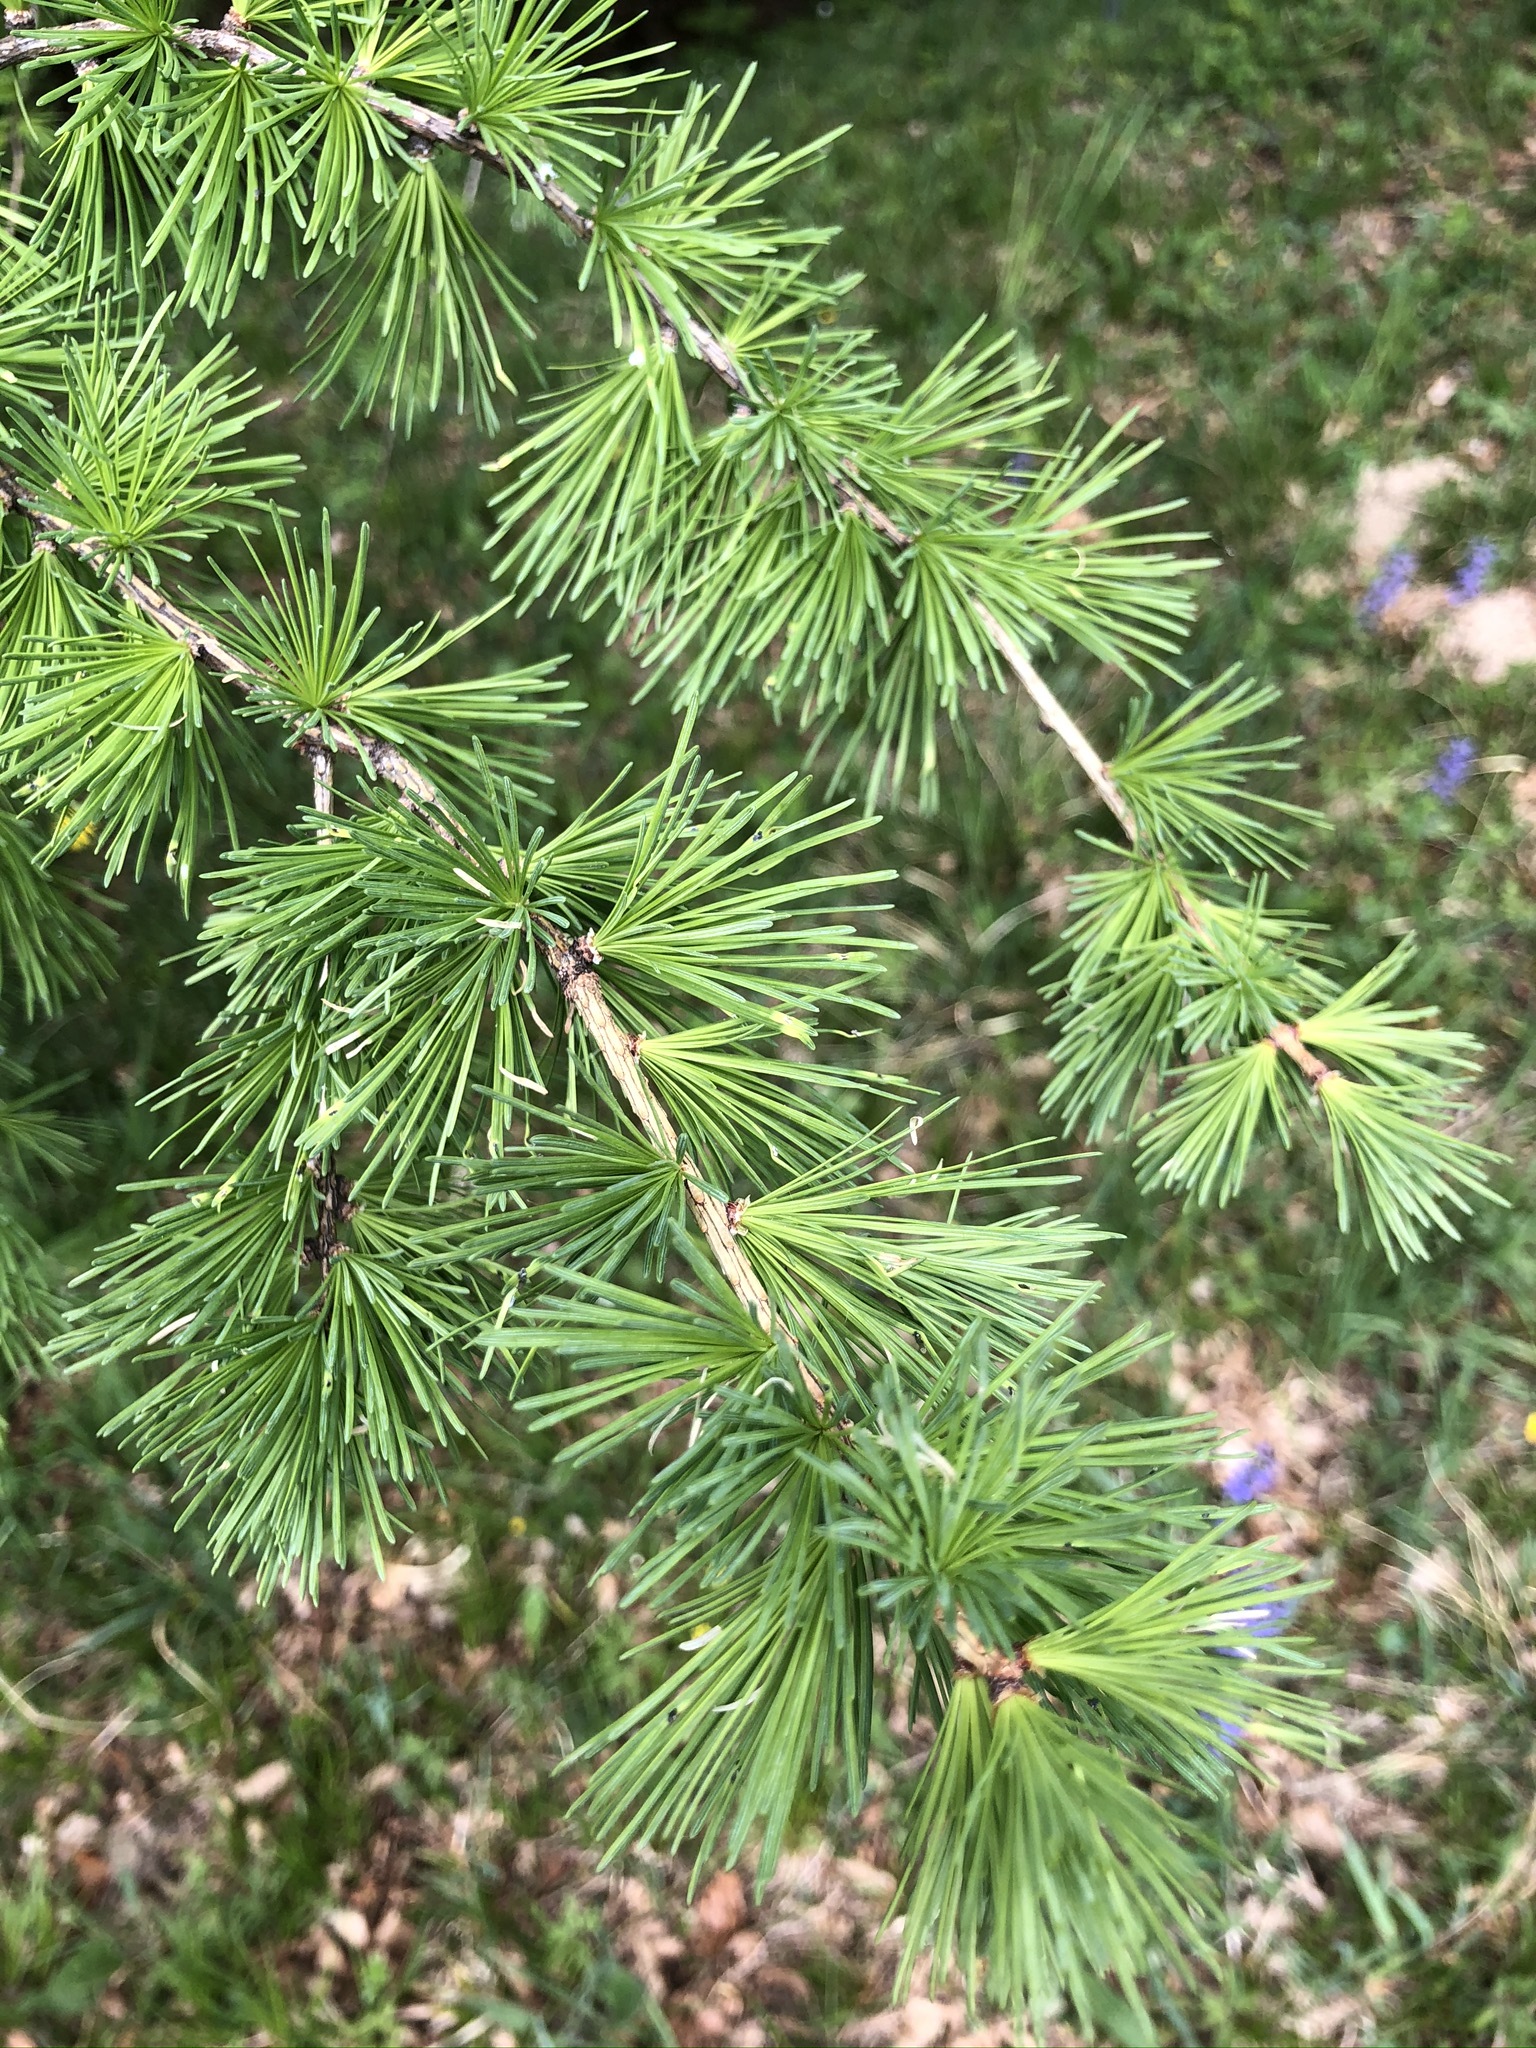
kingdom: Plantae
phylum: Tracheophyta
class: Pinopsida
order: Pinales
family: Pinaceae
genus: Larix
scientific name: Larix decidua
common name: European larch
